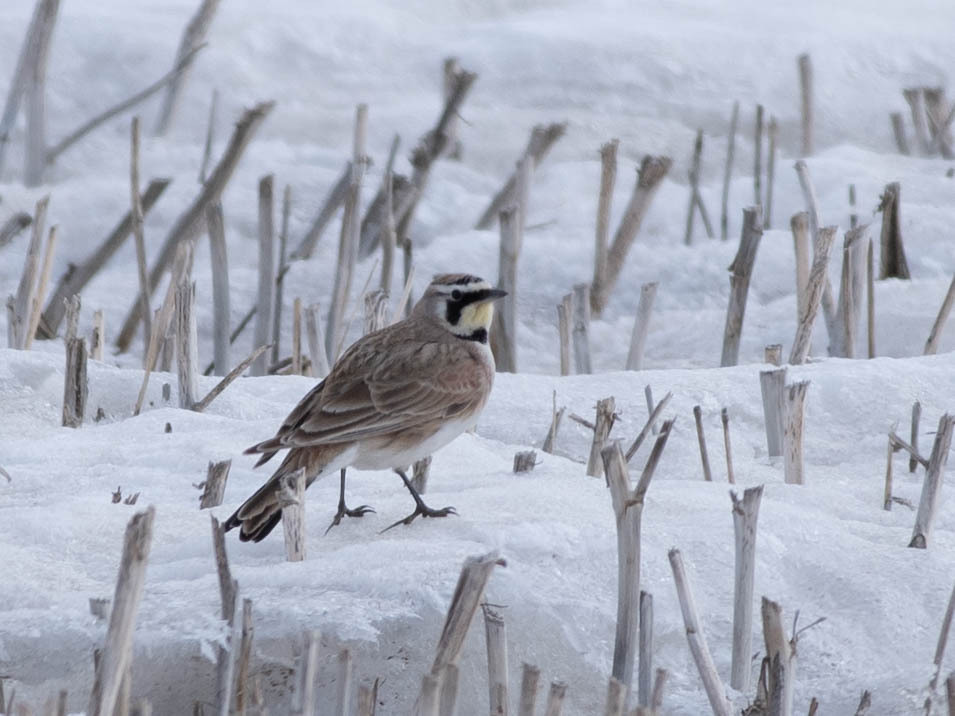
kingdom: Animalia
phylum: Chordata
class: Aves
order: Passeriformes
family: Alaudidae
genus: Eremophila
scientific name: Eremophila alpestris
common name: Horned lark
